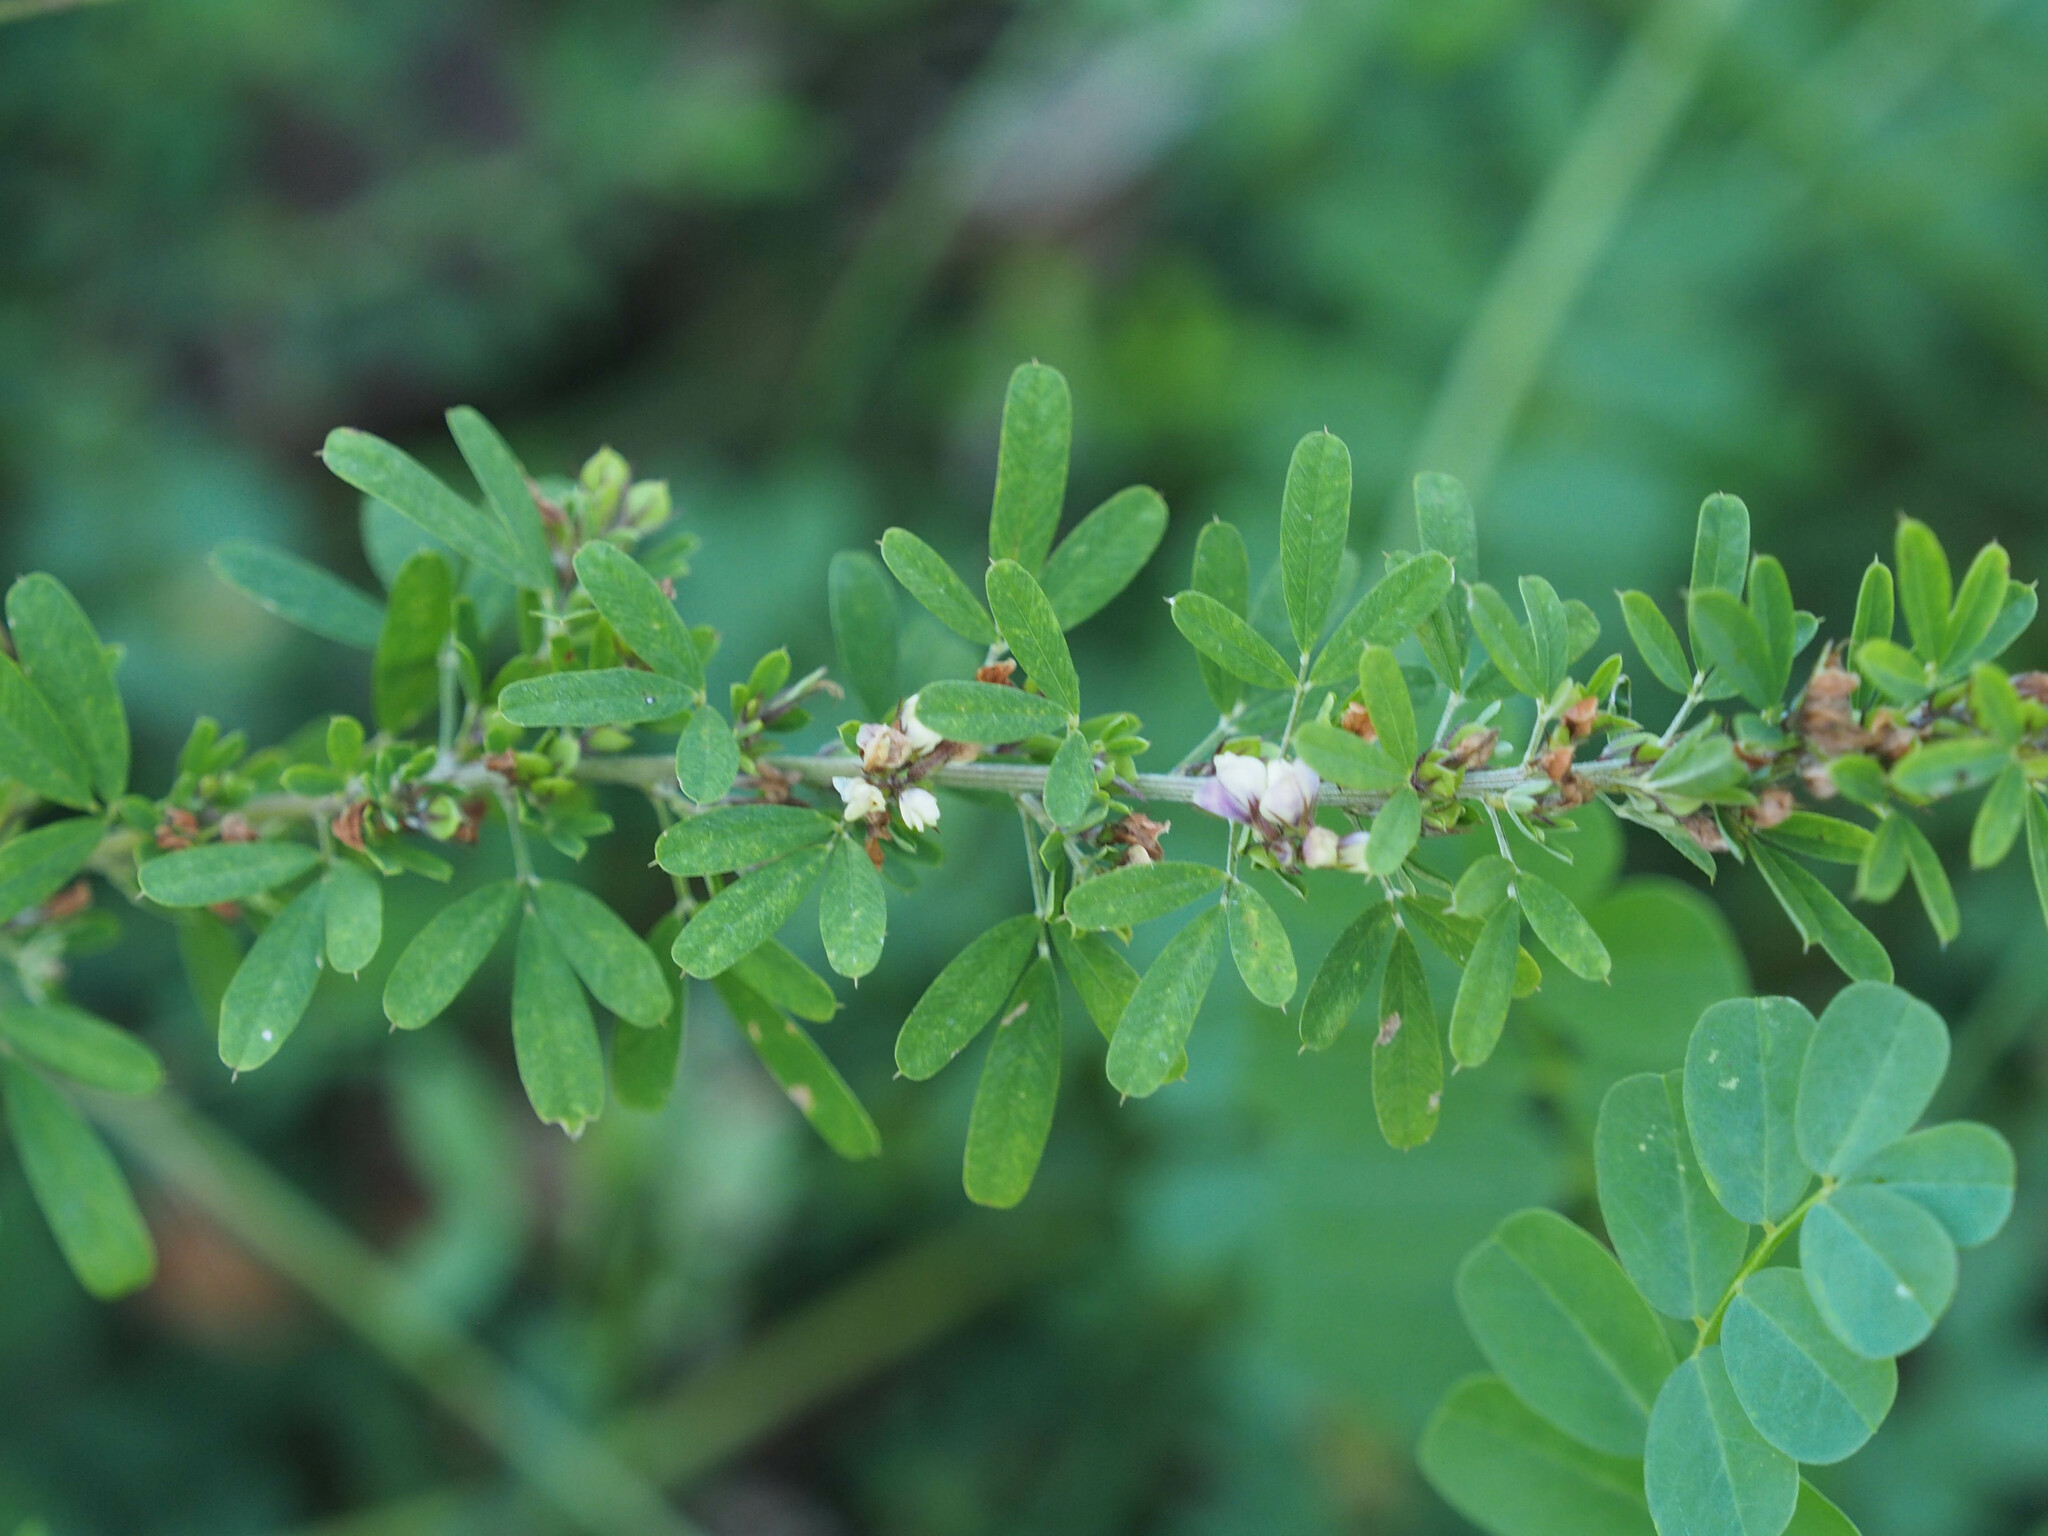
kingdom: Plantae
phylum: Tracheophyta
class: Magnoliopsida
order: Fabales
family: Fabaceae
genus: Lespedeza
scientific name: Lespedeza cuneata
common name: Chinese bush-clover
